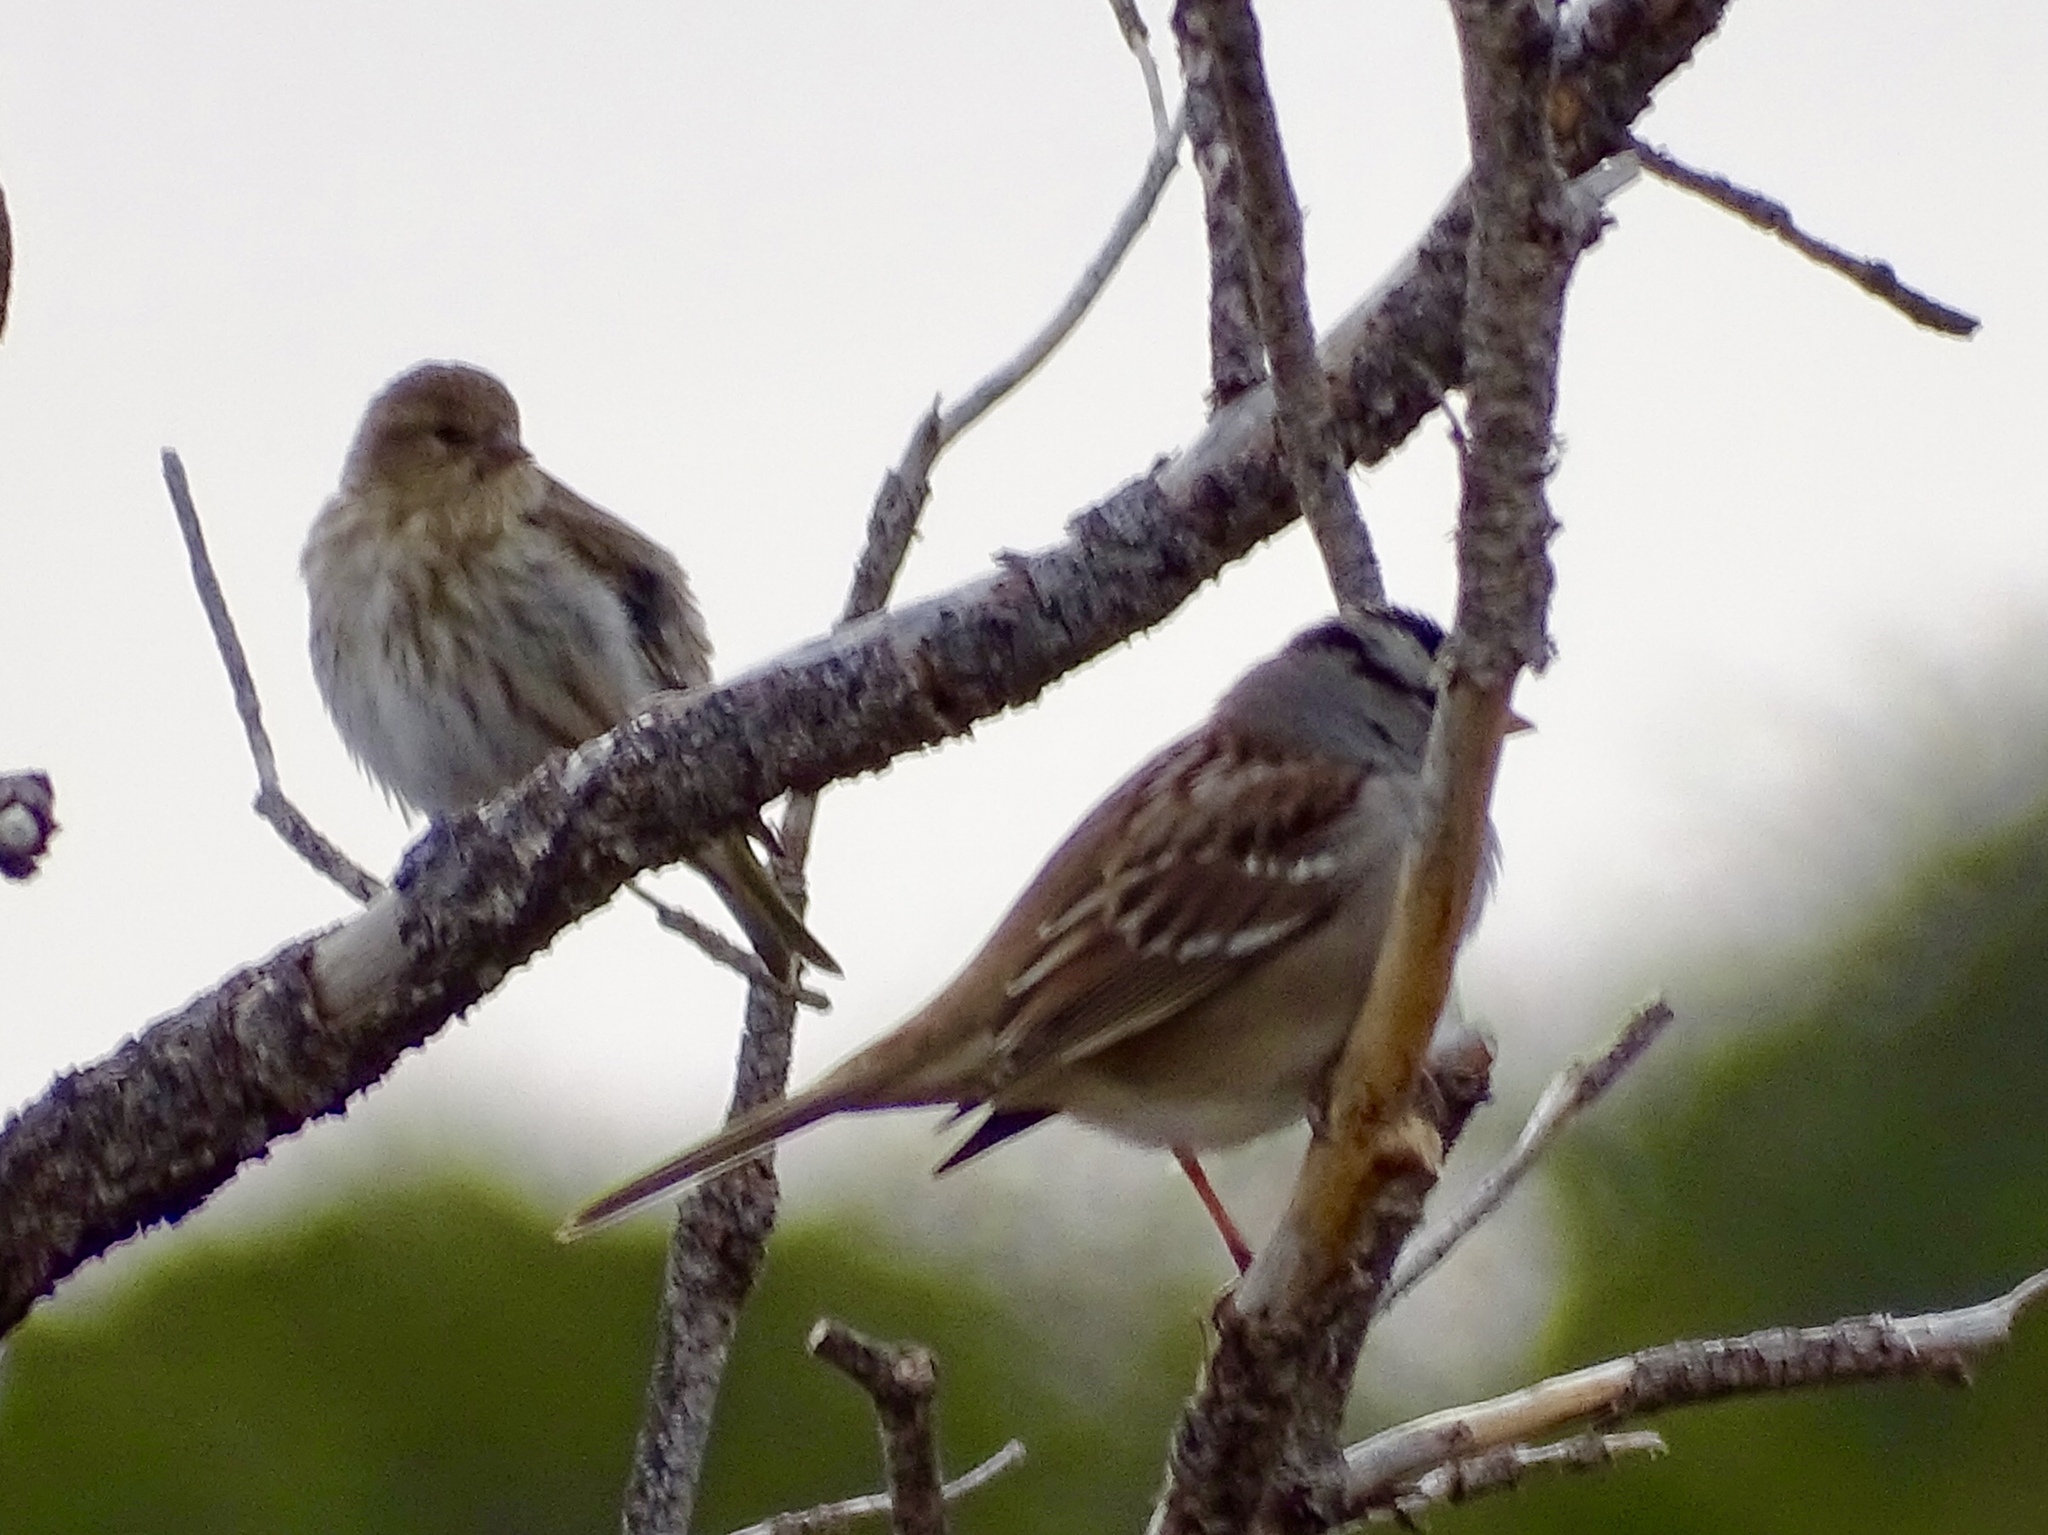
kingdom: Animalia
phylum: Chordata
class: Aves
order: Passeriformes
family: Passerellidae
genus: Zonotrichia
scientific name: Zonotrichia leucophrys
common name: White-crowned sparrow
